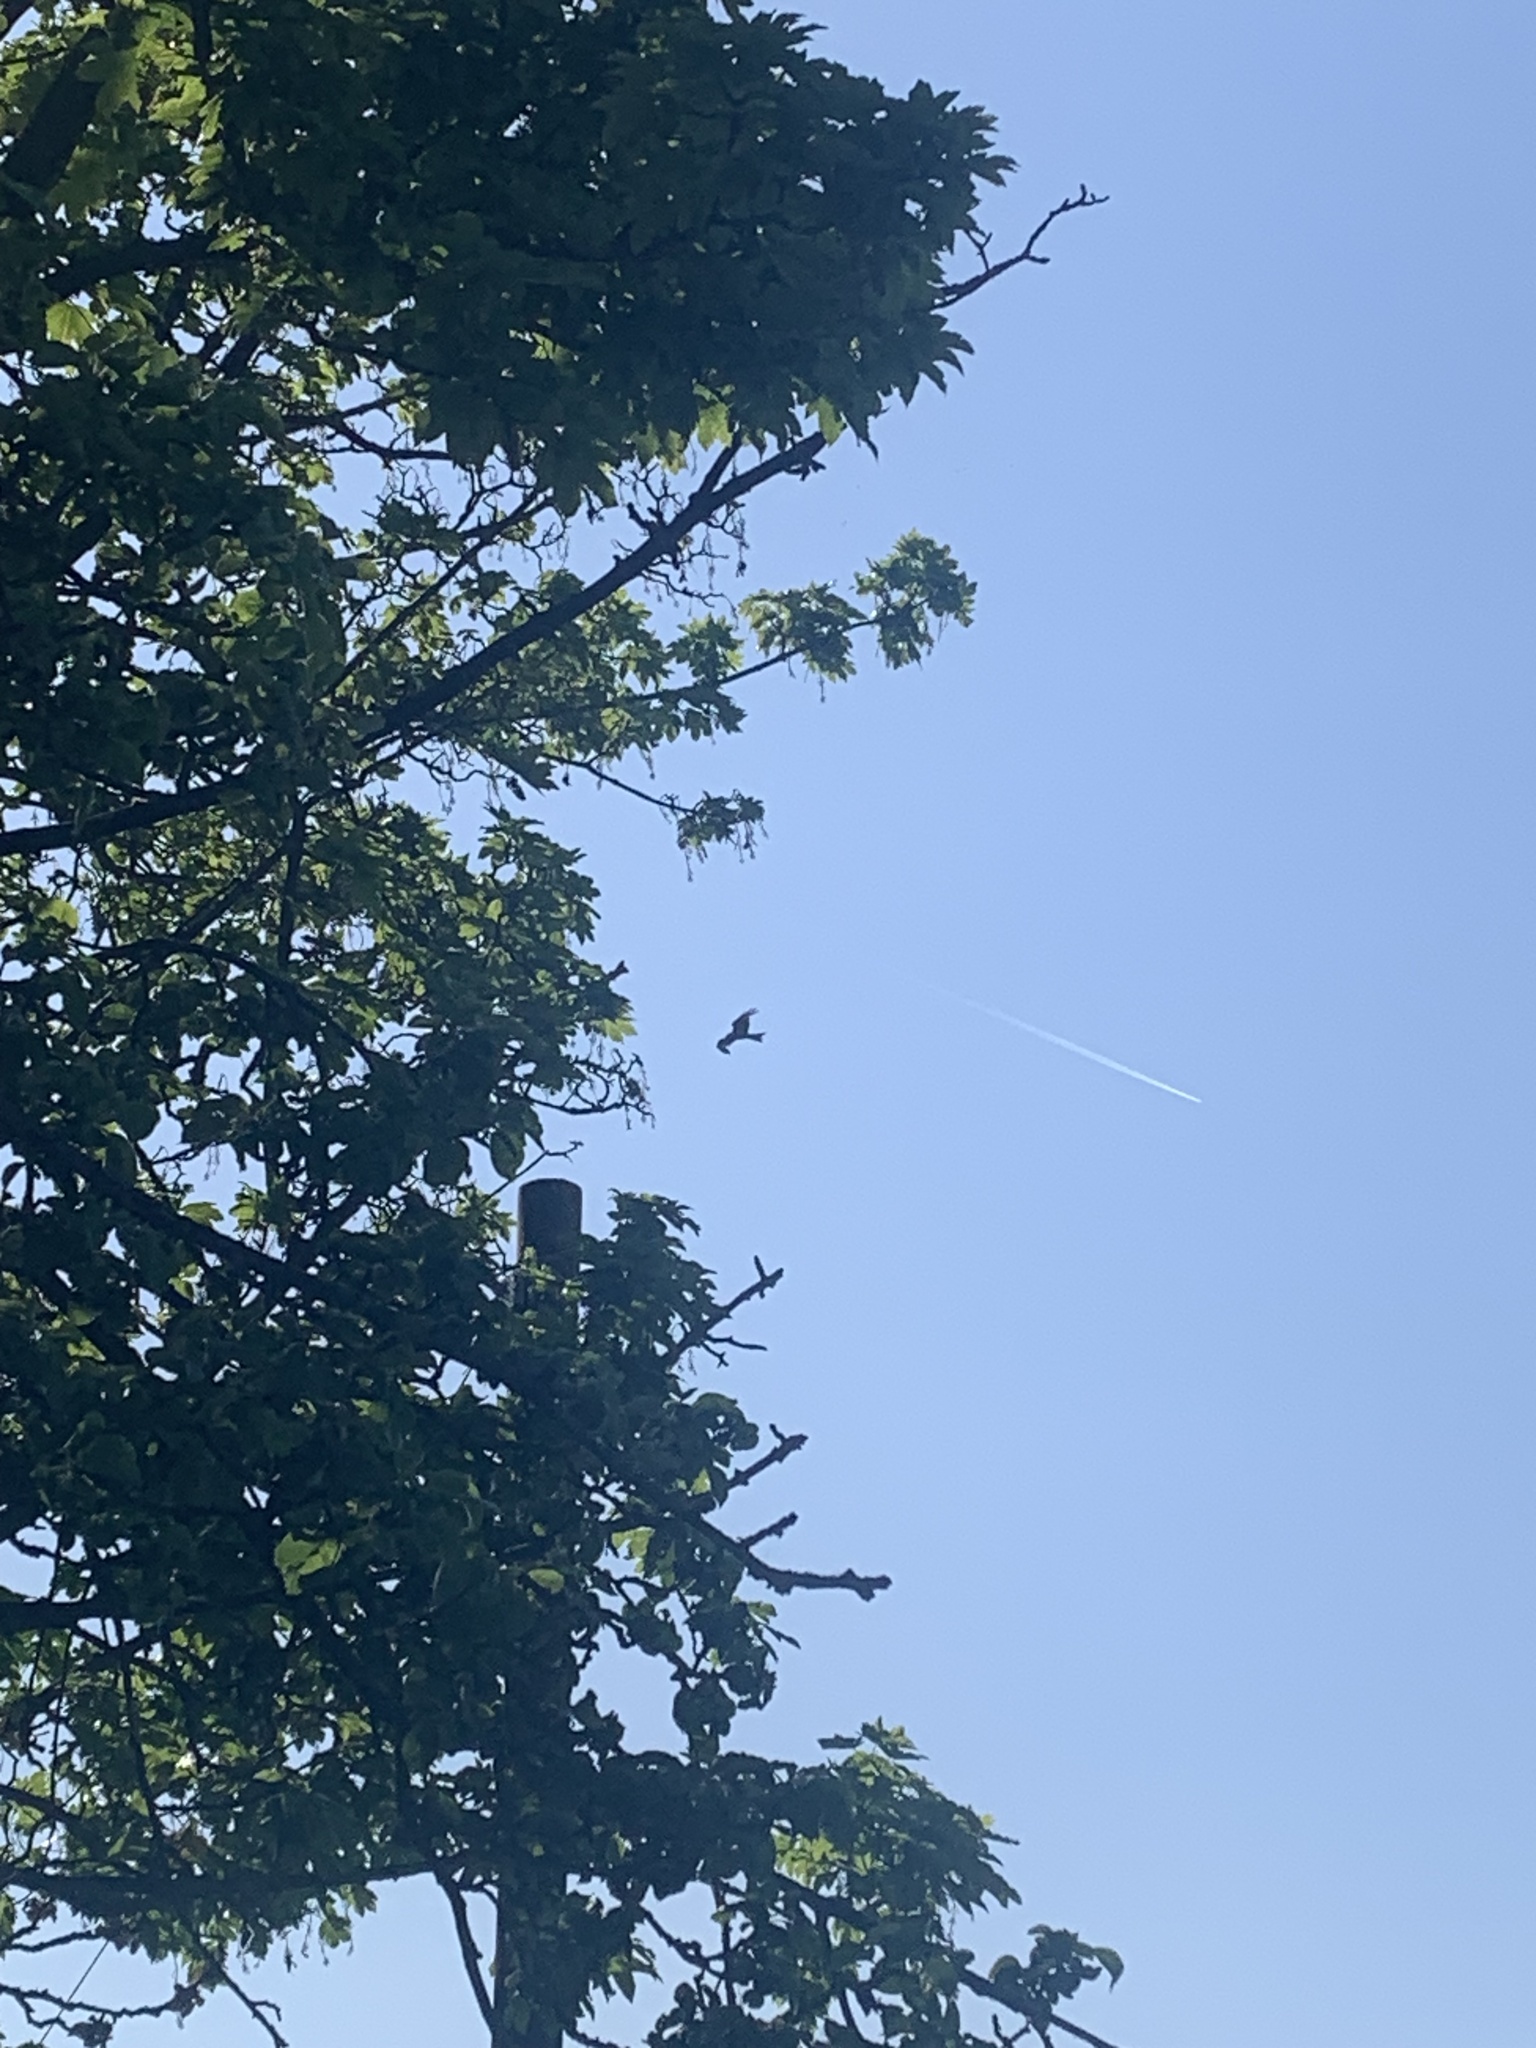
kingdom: Animalia
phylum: Chordata
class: Aves
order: Accipitriformes
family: Accipitridae
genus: Milvus
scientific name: Milvus milvus
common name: Red kite
